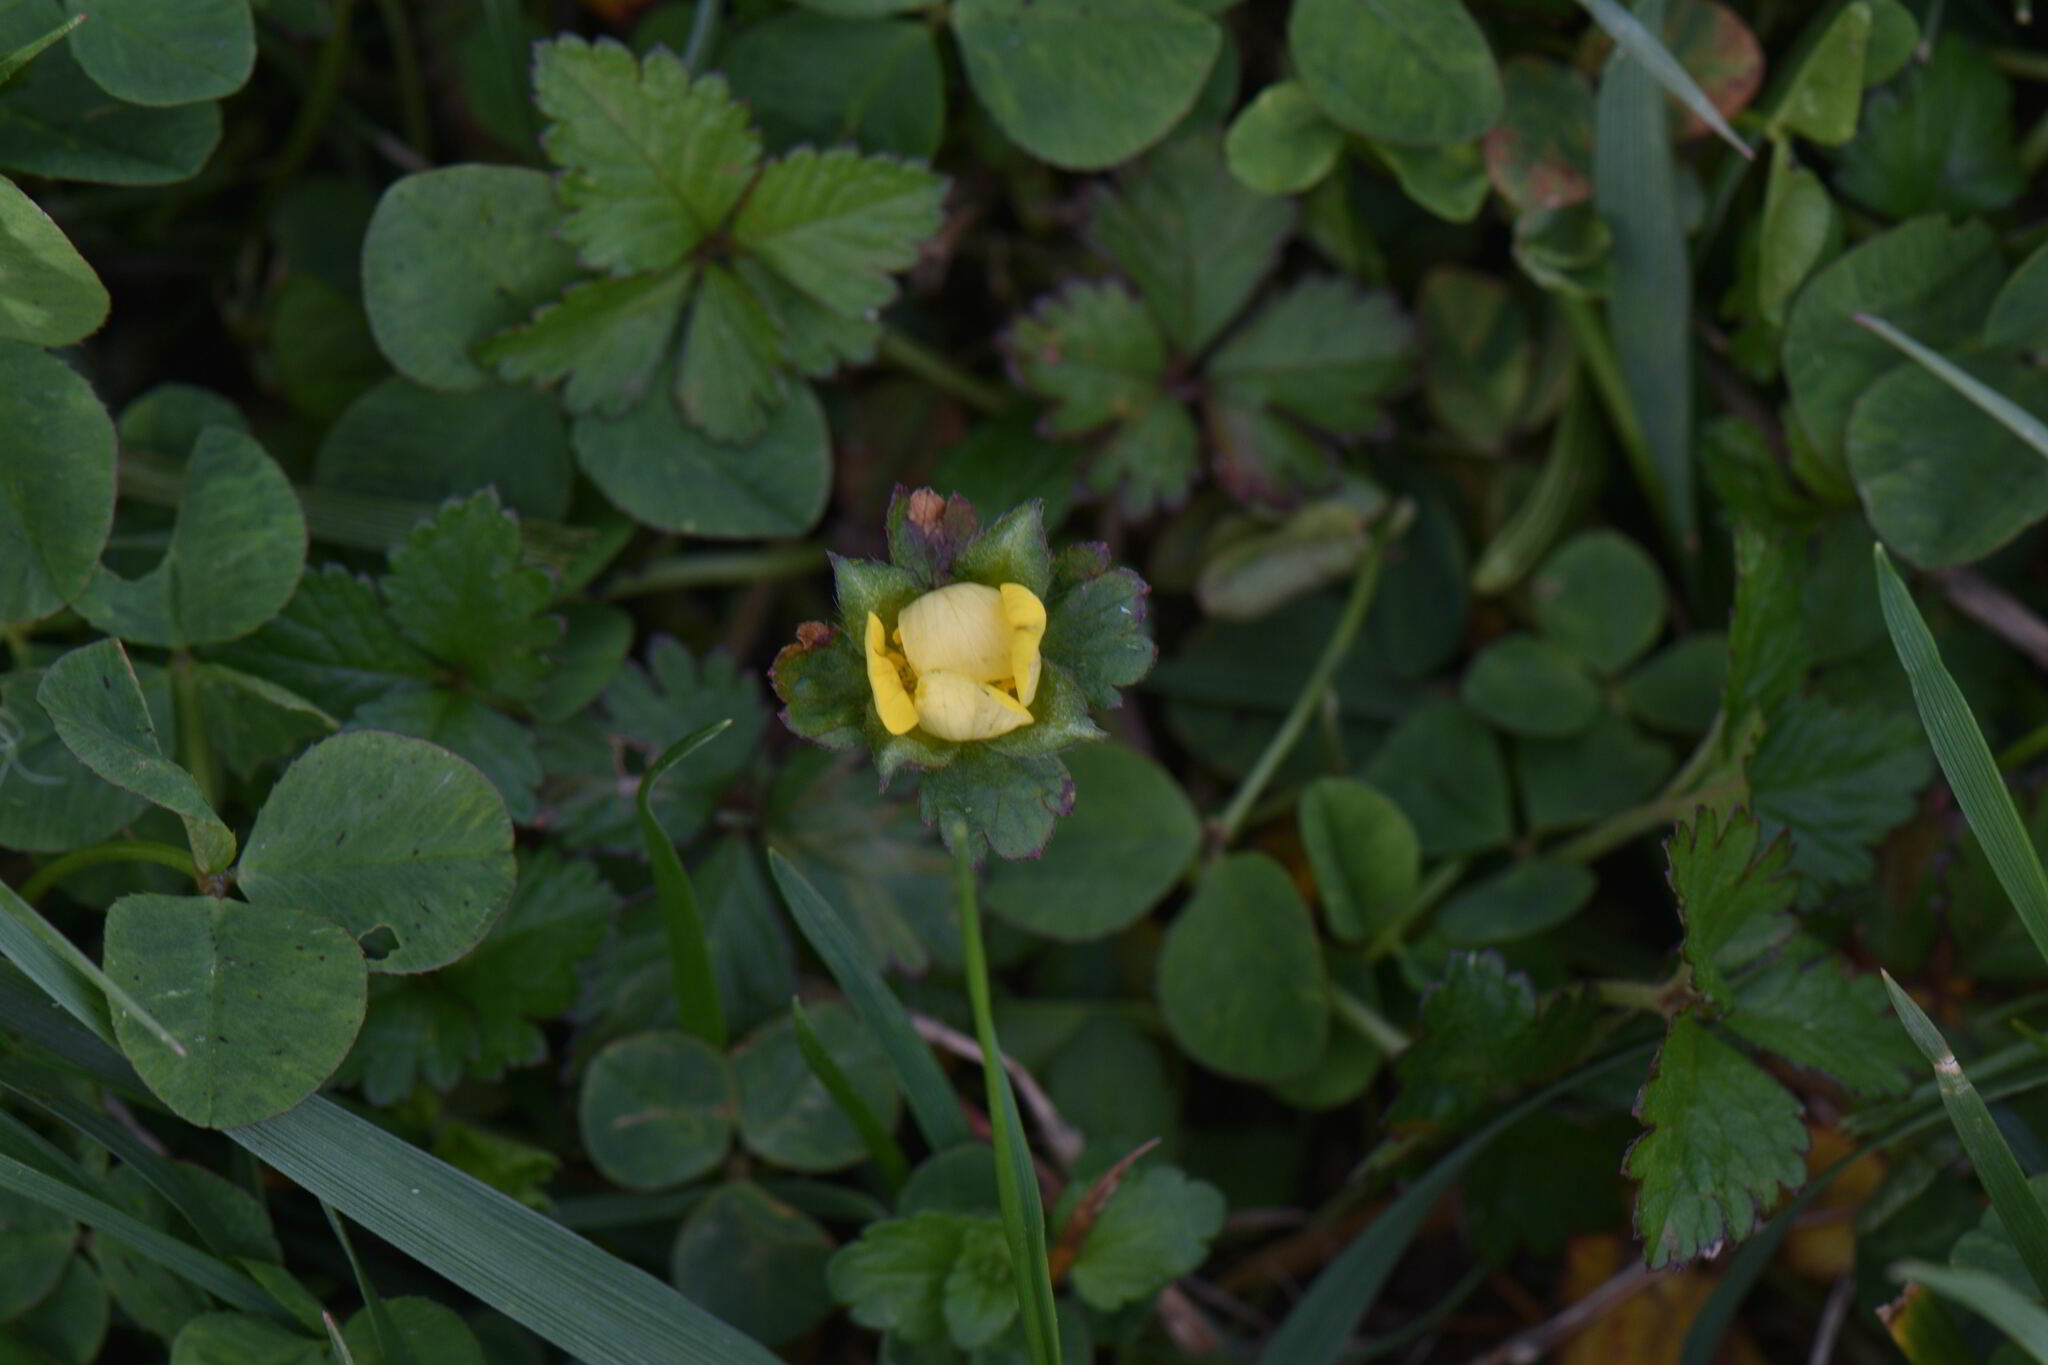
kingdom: Plantae
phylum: Tracheophyta
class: Magnoliopsida
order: Rosales
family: Rosaceae
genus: Potentilla
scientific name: Potentilla indica
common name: Yellow-flowered strawberry
